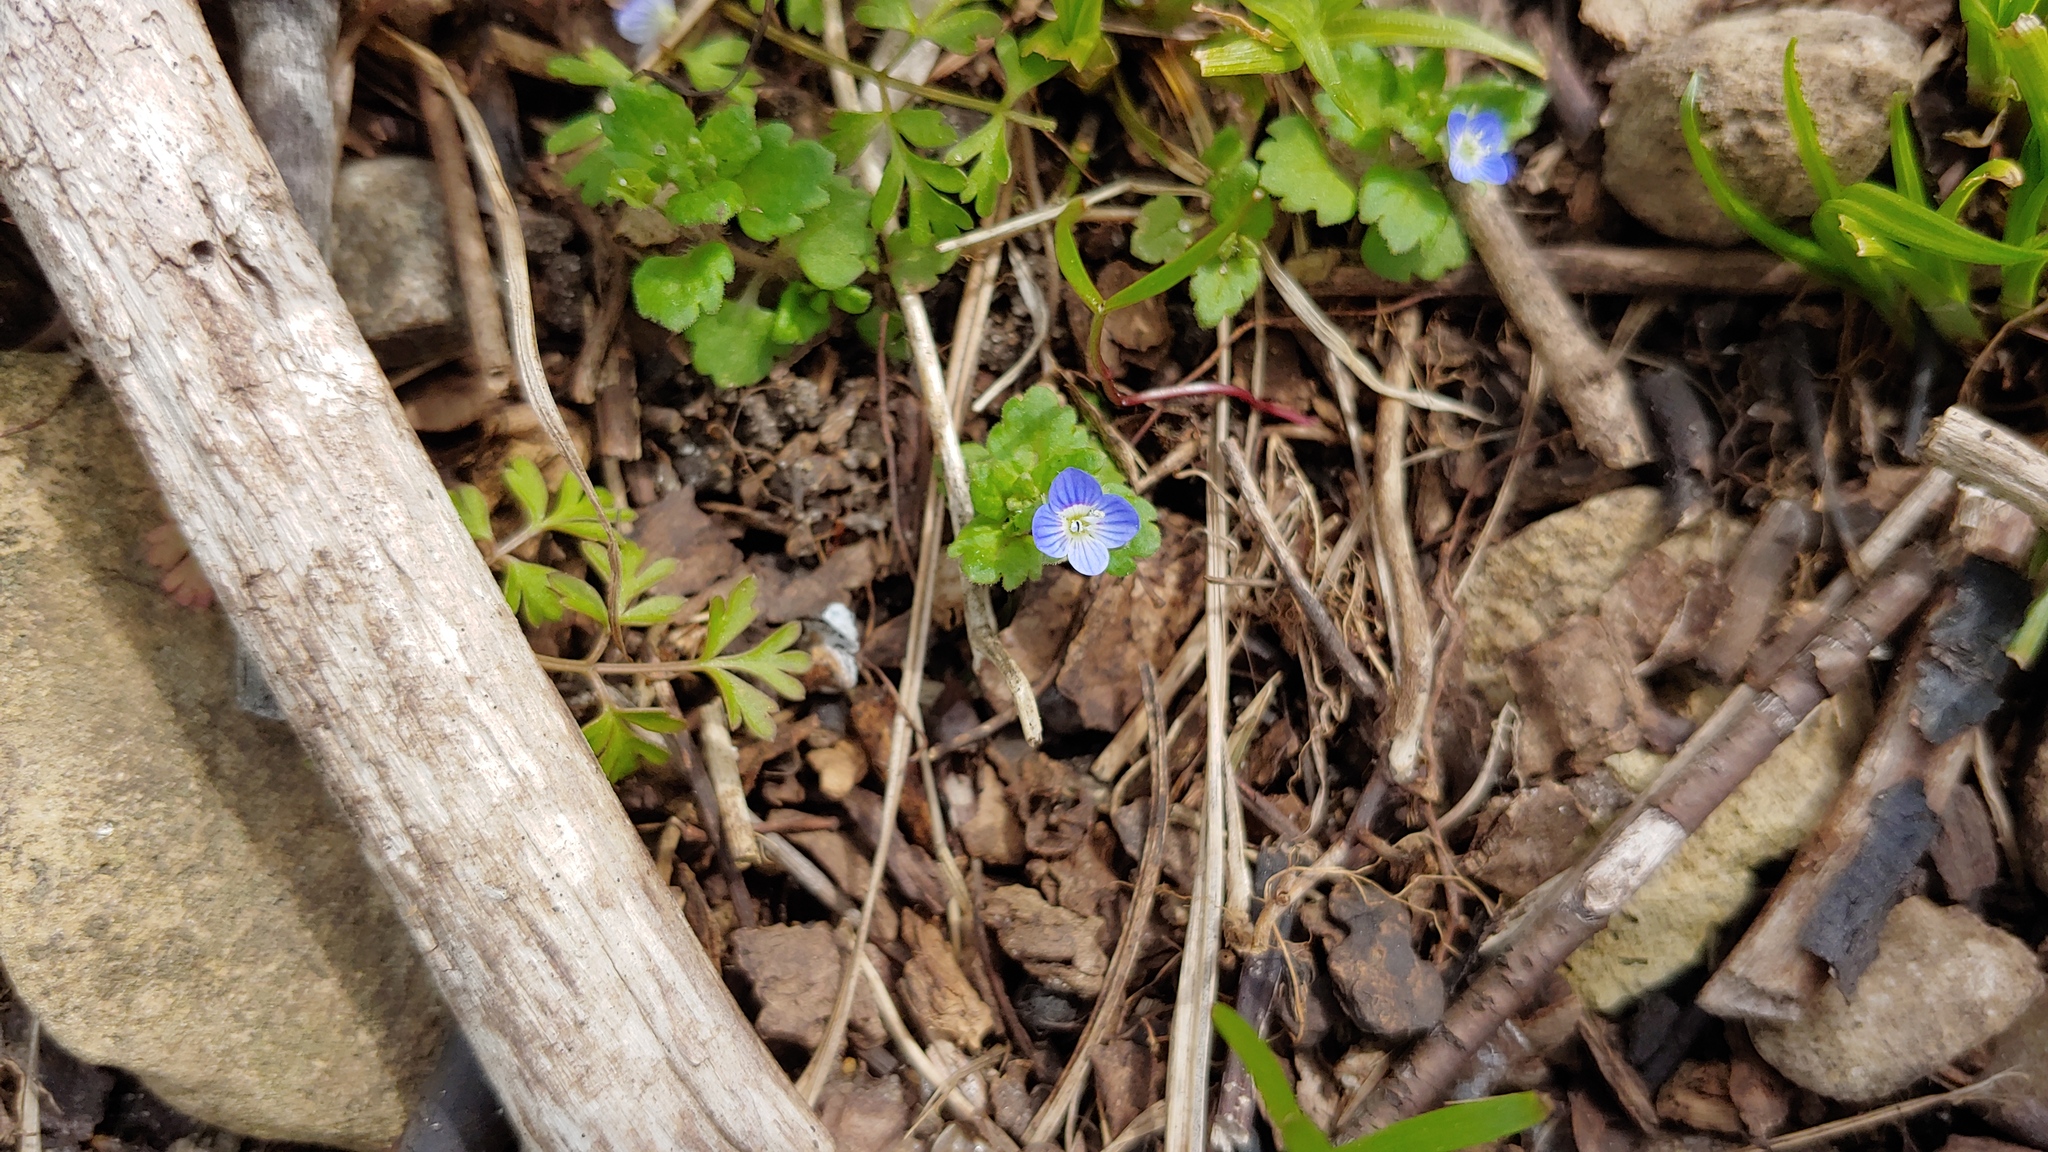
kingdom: Plantae
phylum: Tracheophyta
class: Magnoliopsida
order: Lamiales
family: Plantaginaceae
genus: Veronica
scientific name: Veronica polita
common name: Grey field-speedwell
